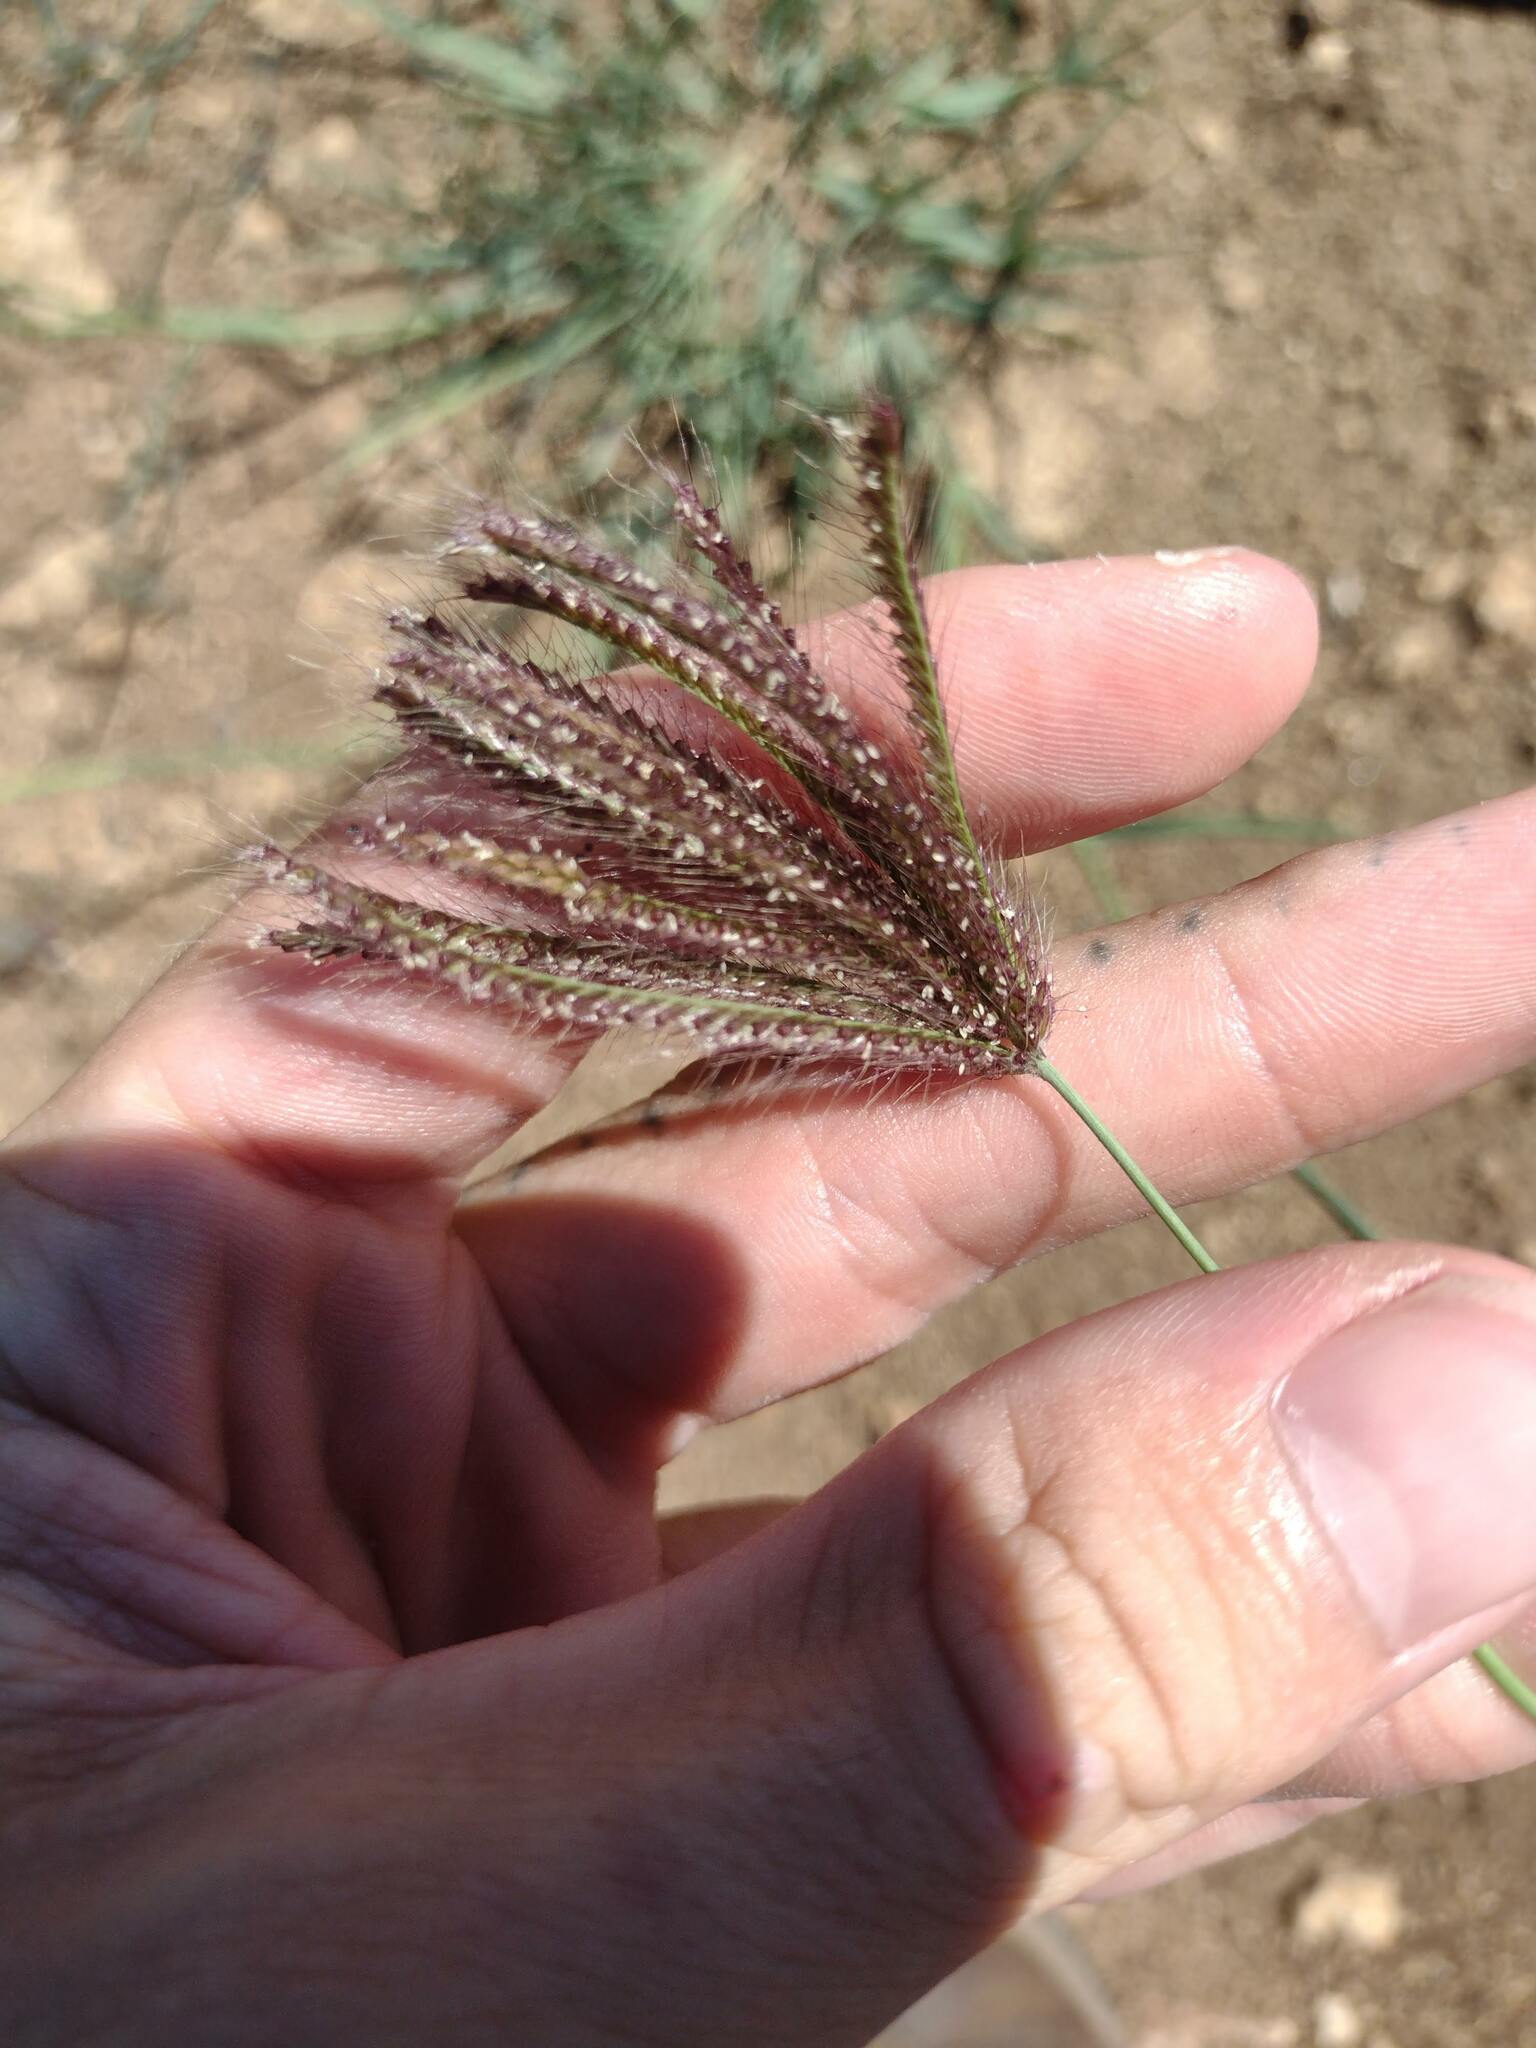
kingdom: Plantae
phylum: Tracheophyta
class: Liliopsida
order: Poales
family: Poaceae
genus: Chloris
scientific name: Chloris barbata
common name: Swollen fingergrass
